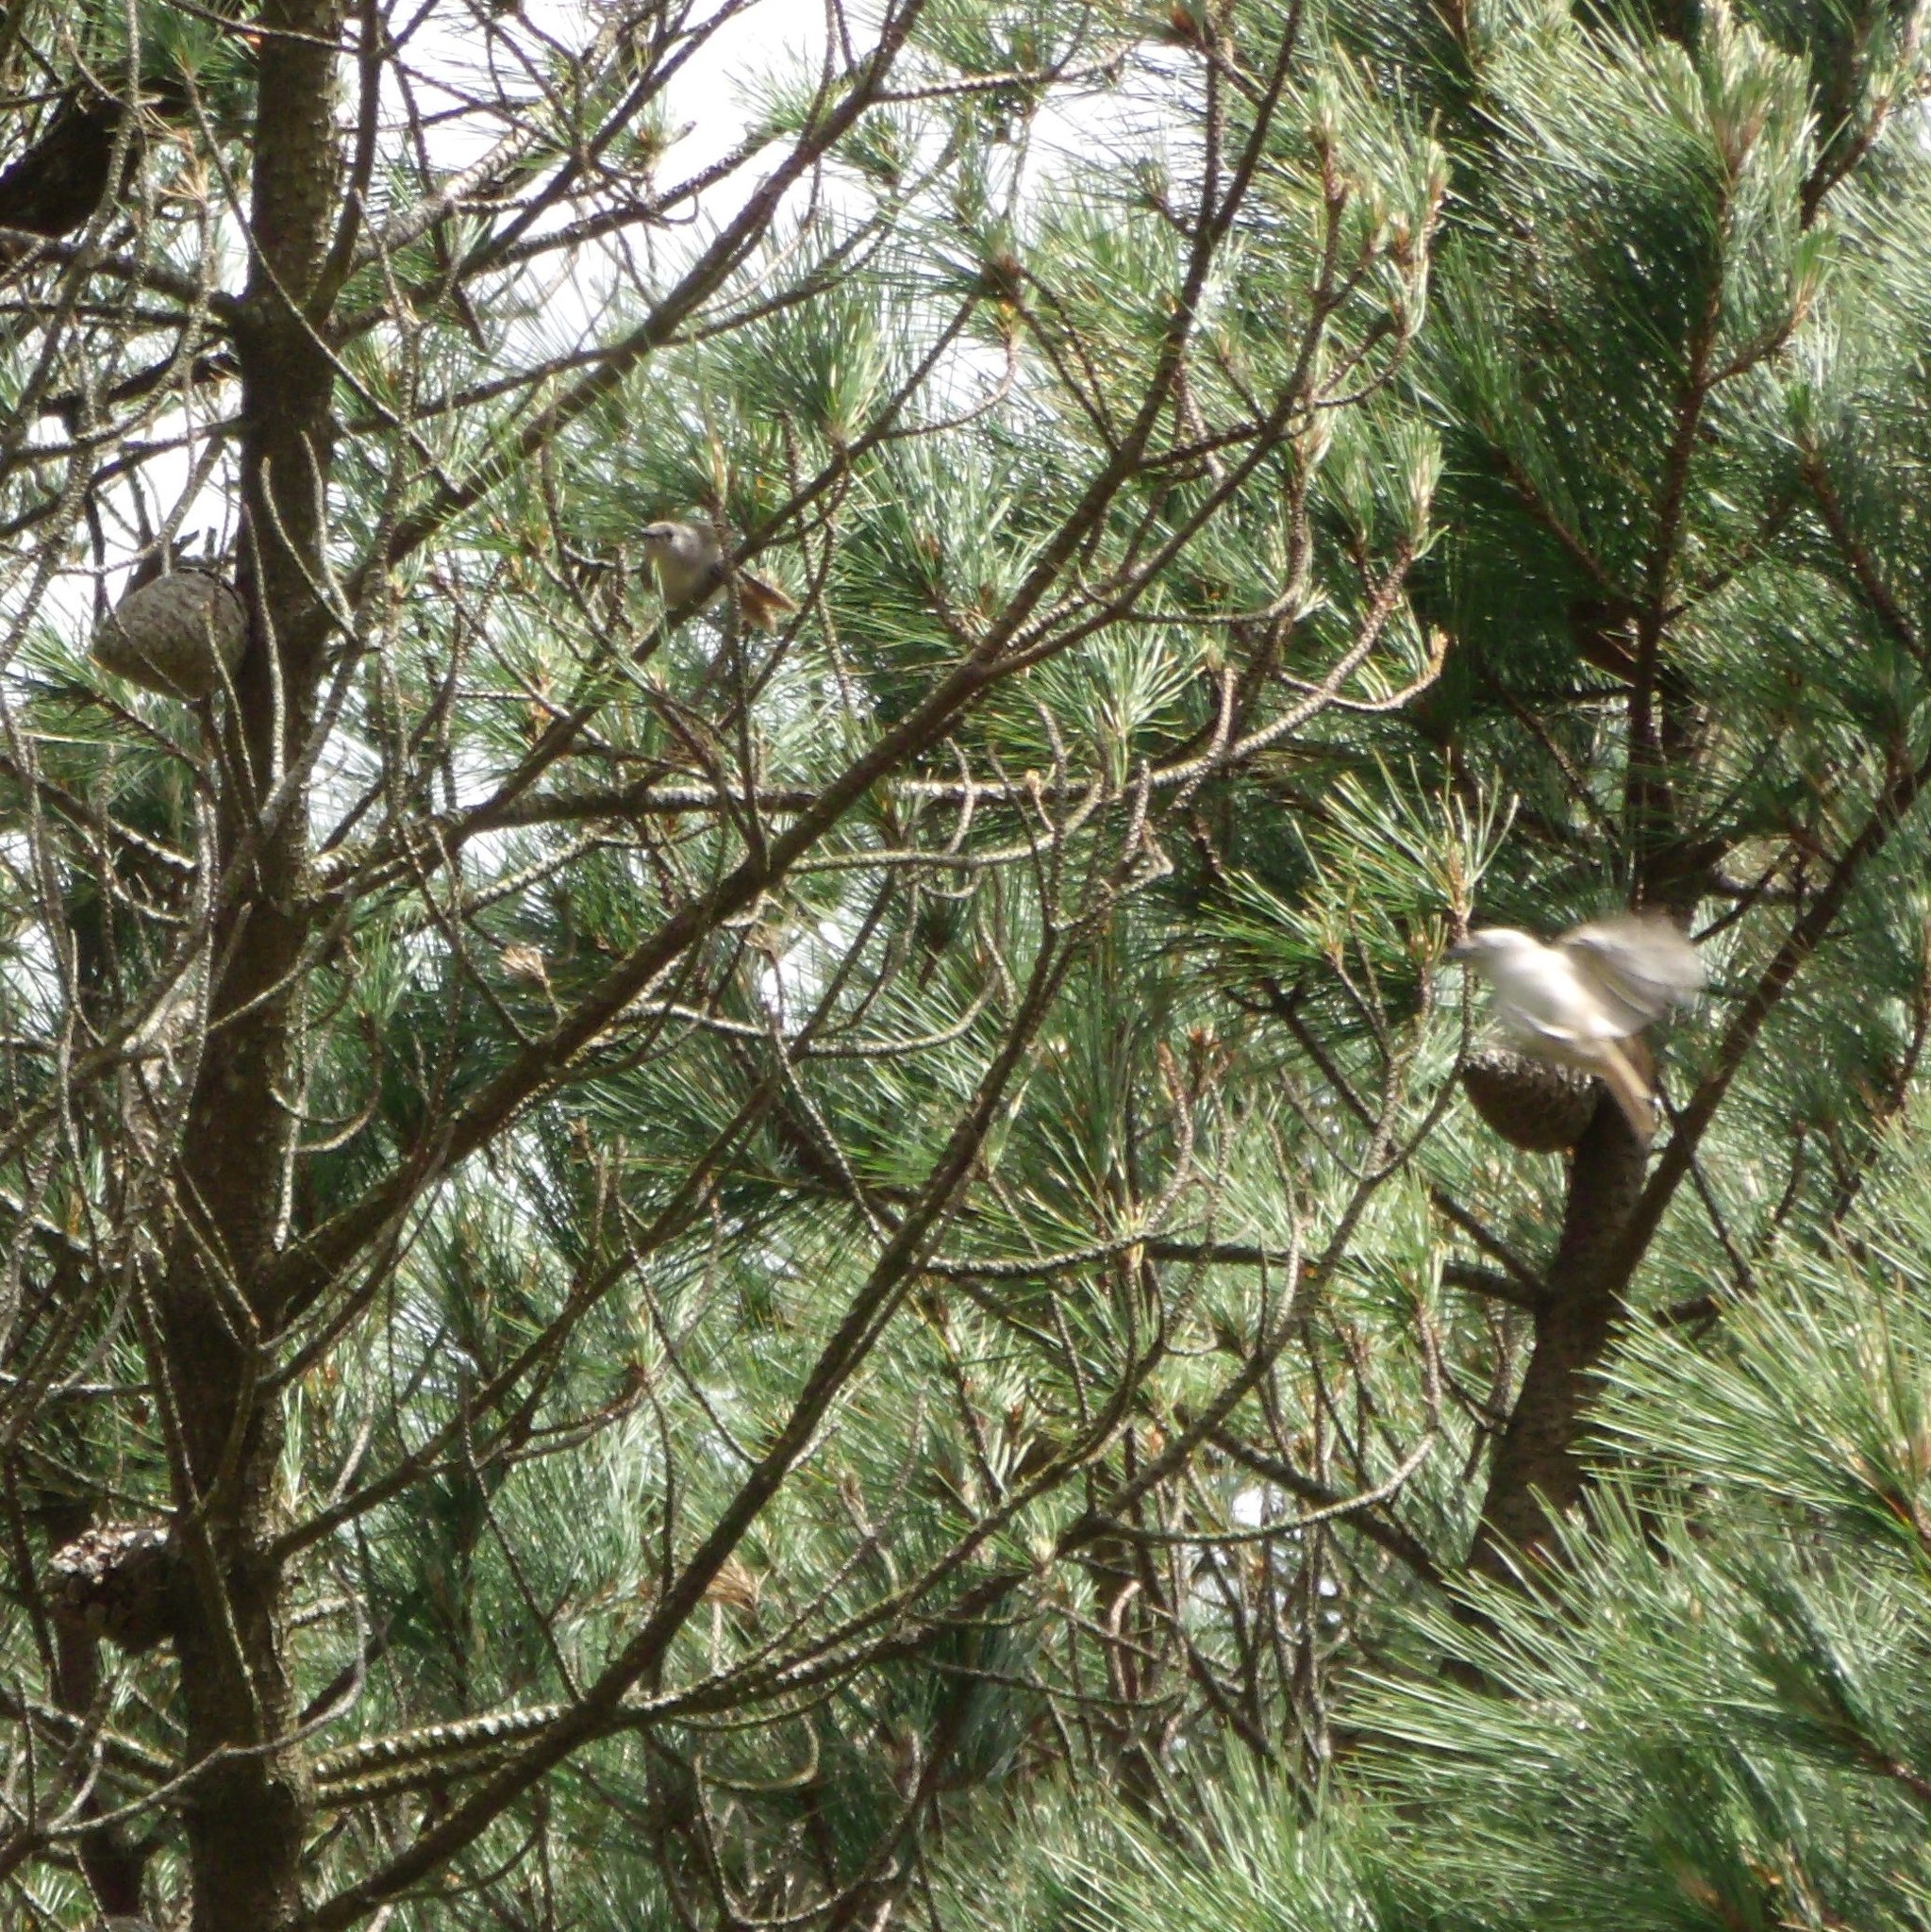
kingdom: Animalia
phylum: Chordata
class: Aves
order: Passeriformes
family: Acanthizidae
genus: Mohoua
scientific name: Mohoua albicilla
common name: Whitehead
